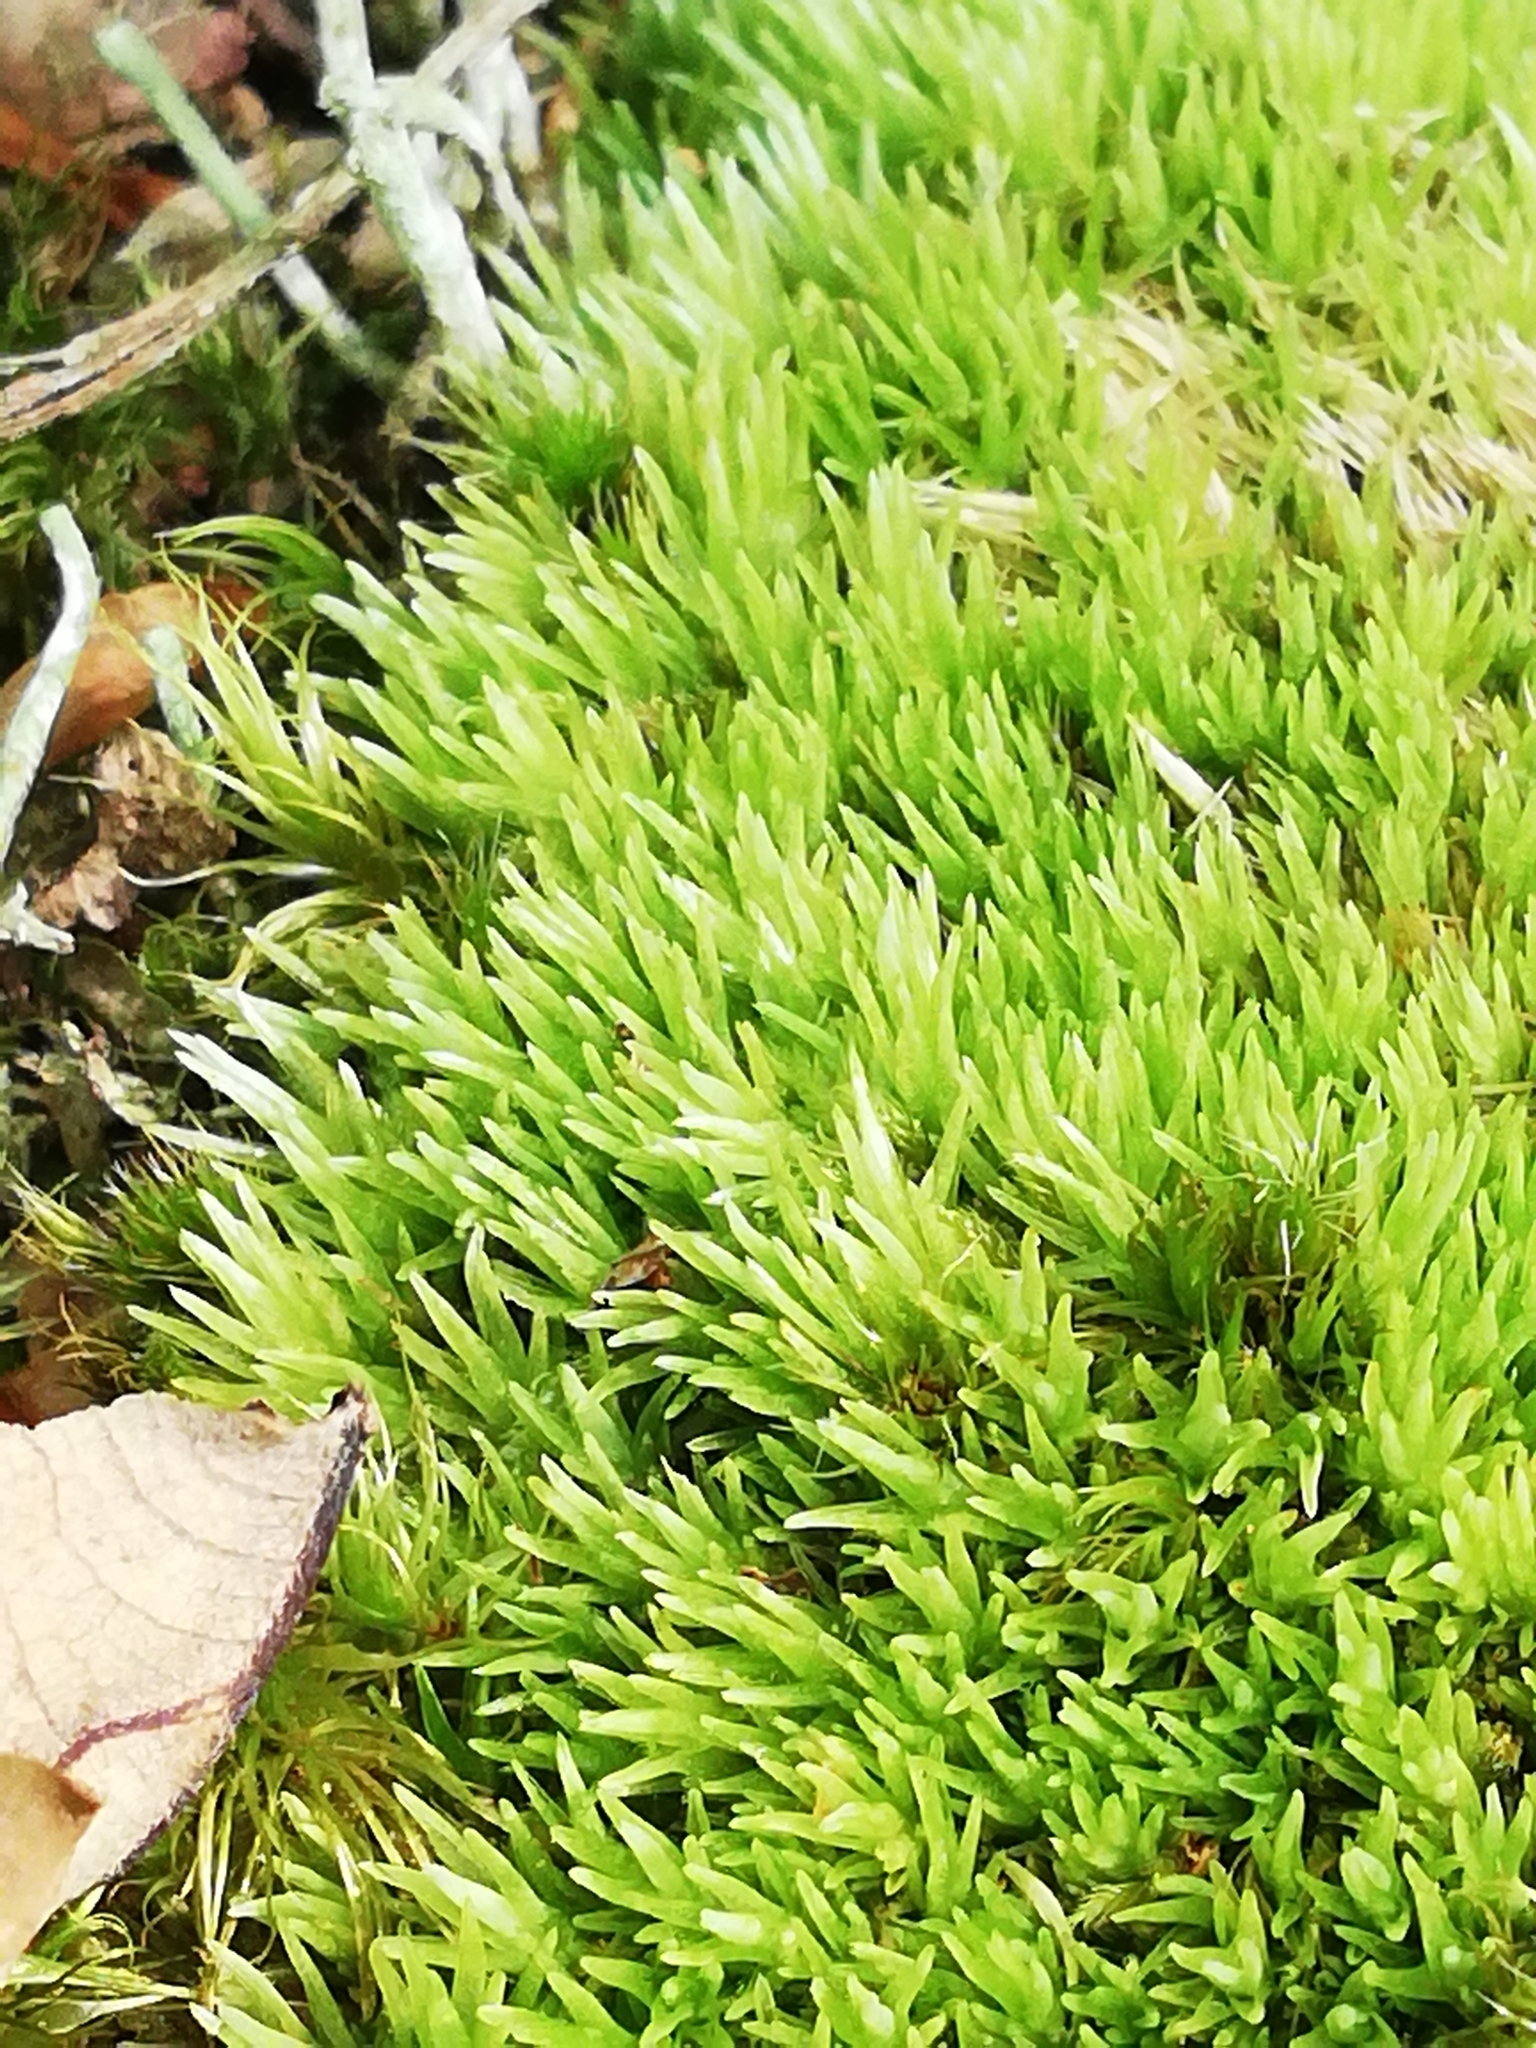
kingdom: Plantae
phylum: Bryophyta
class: Bryopsida
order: Dicranales
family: Leucobryaceae
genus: Leucobryum
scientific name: Leucobryum glaucum
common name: Large white-moss
